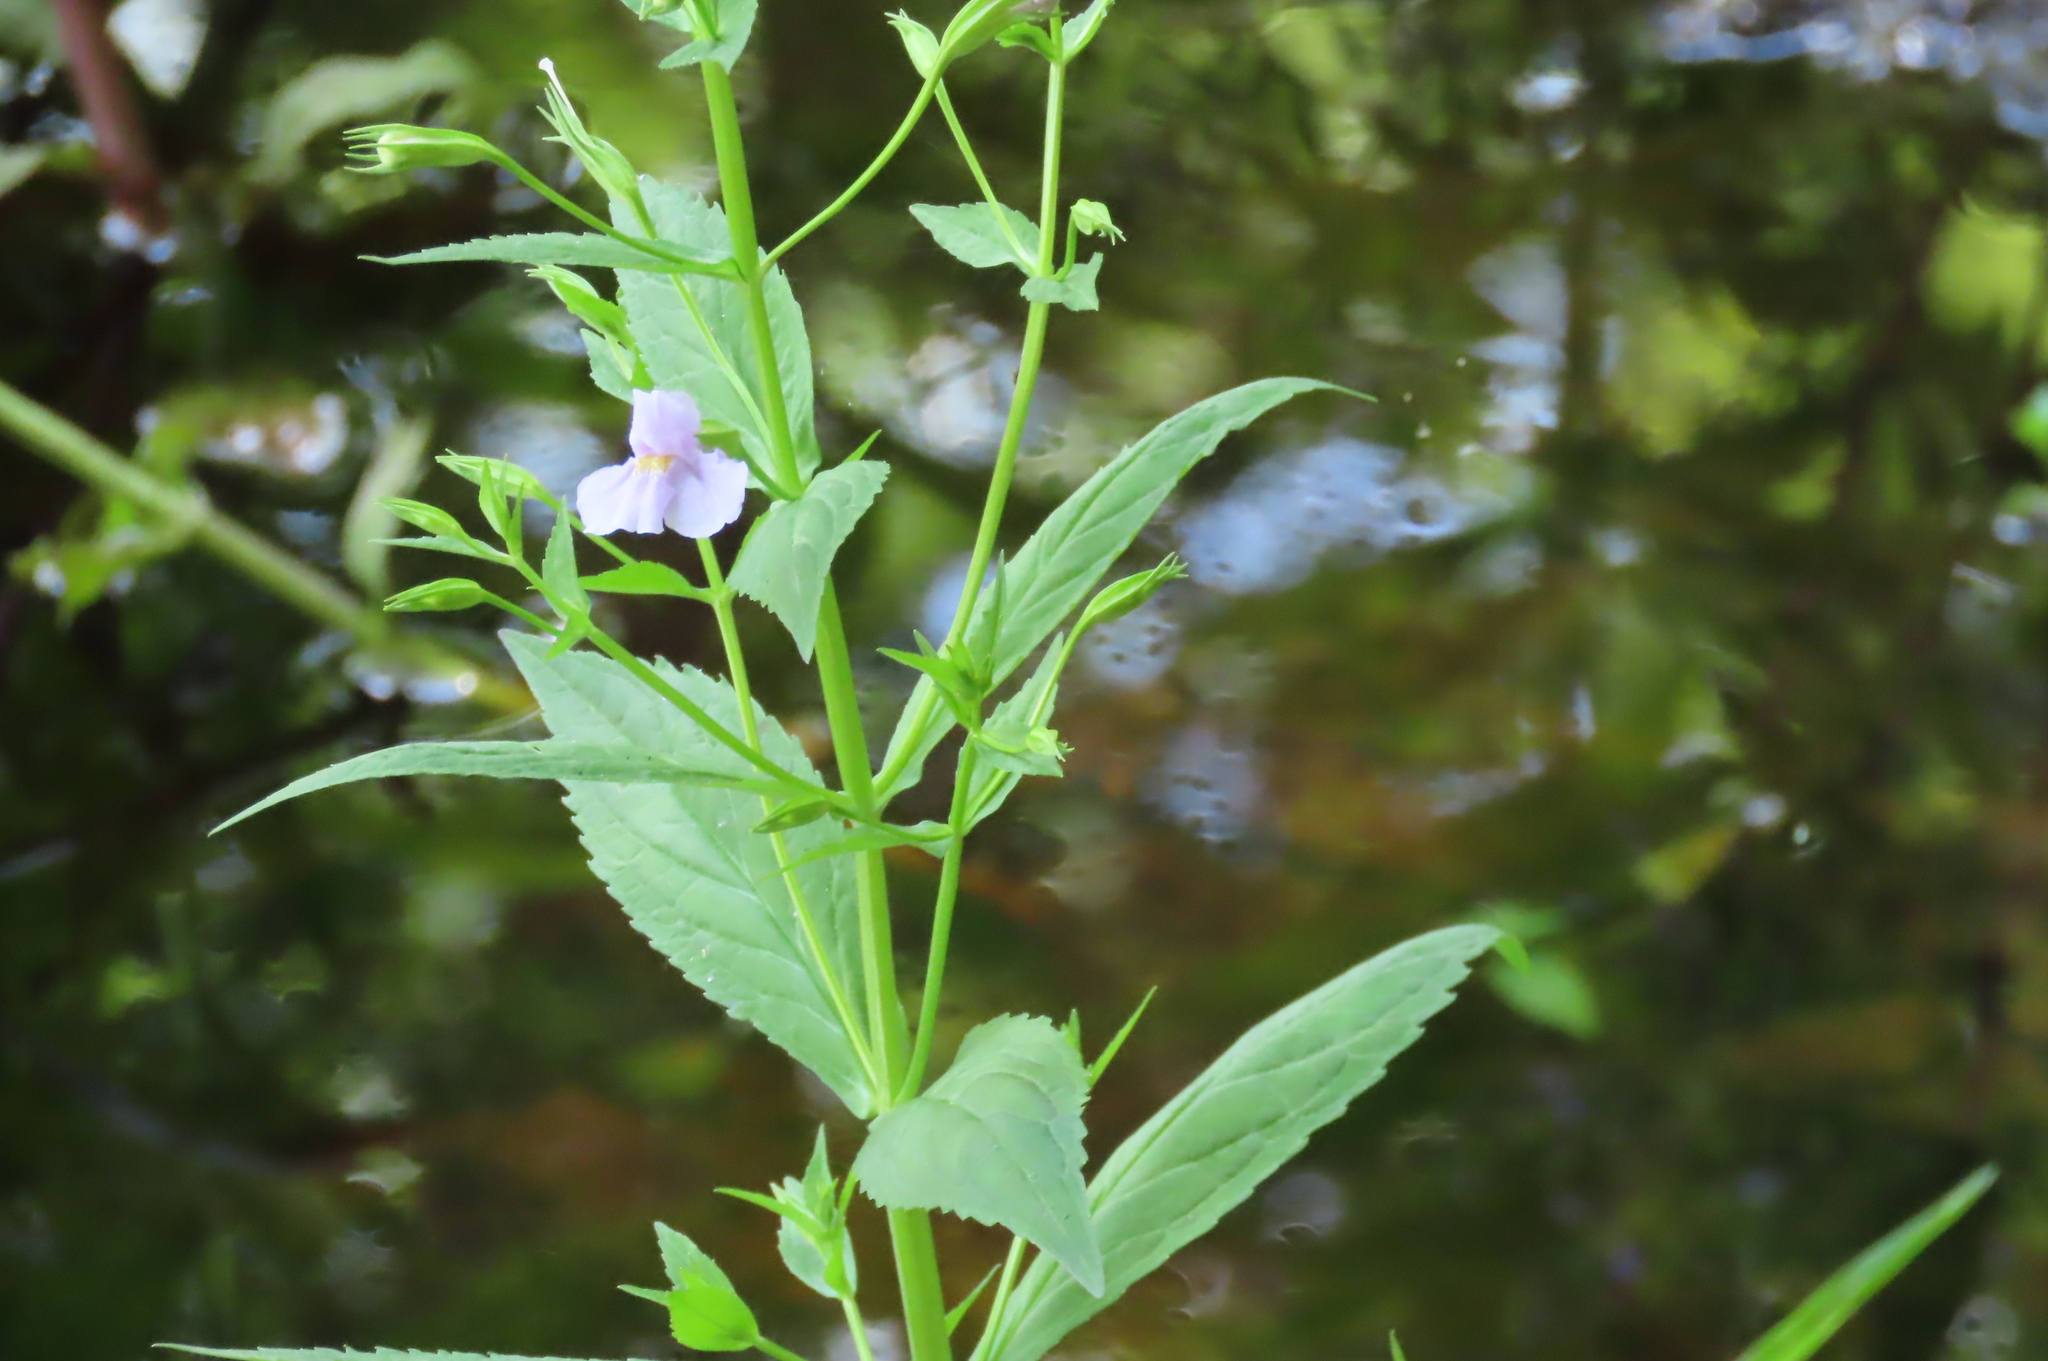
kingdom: Plantae
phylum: Tracheophyta
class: Magnoliopsida
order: Lamiales
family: Phrymaceae
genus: Mimulus
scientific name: Mimulus ringens
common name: Allegheny monkeyflower
